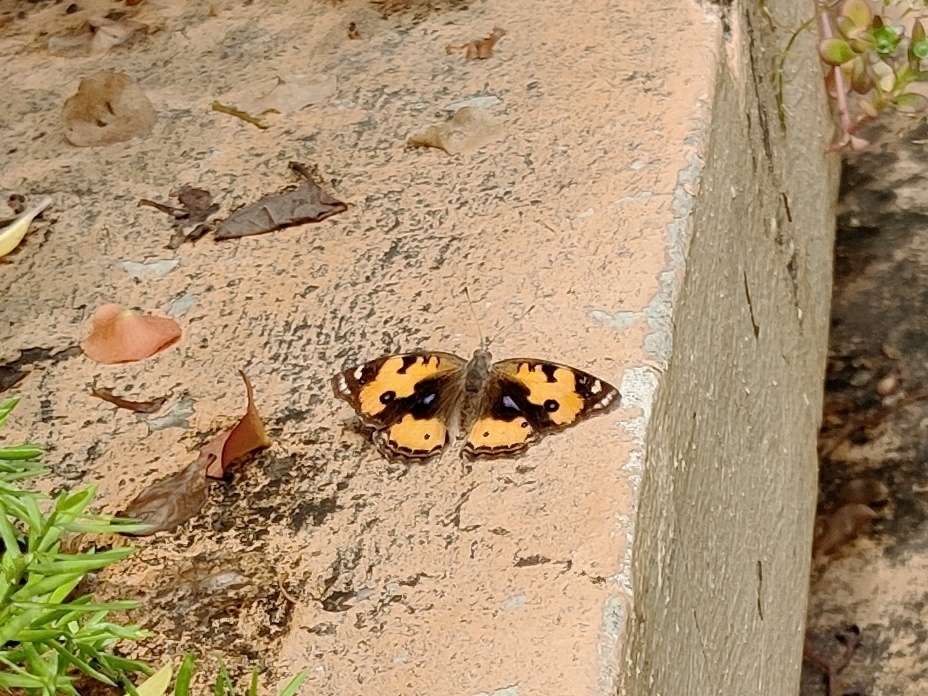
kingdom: Animalia
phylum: Arthropoda
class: Insecta
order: Lepidoptera
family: Nymphalidae
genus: Junonia
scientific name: Junonia hierta
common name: Yellow pansy
